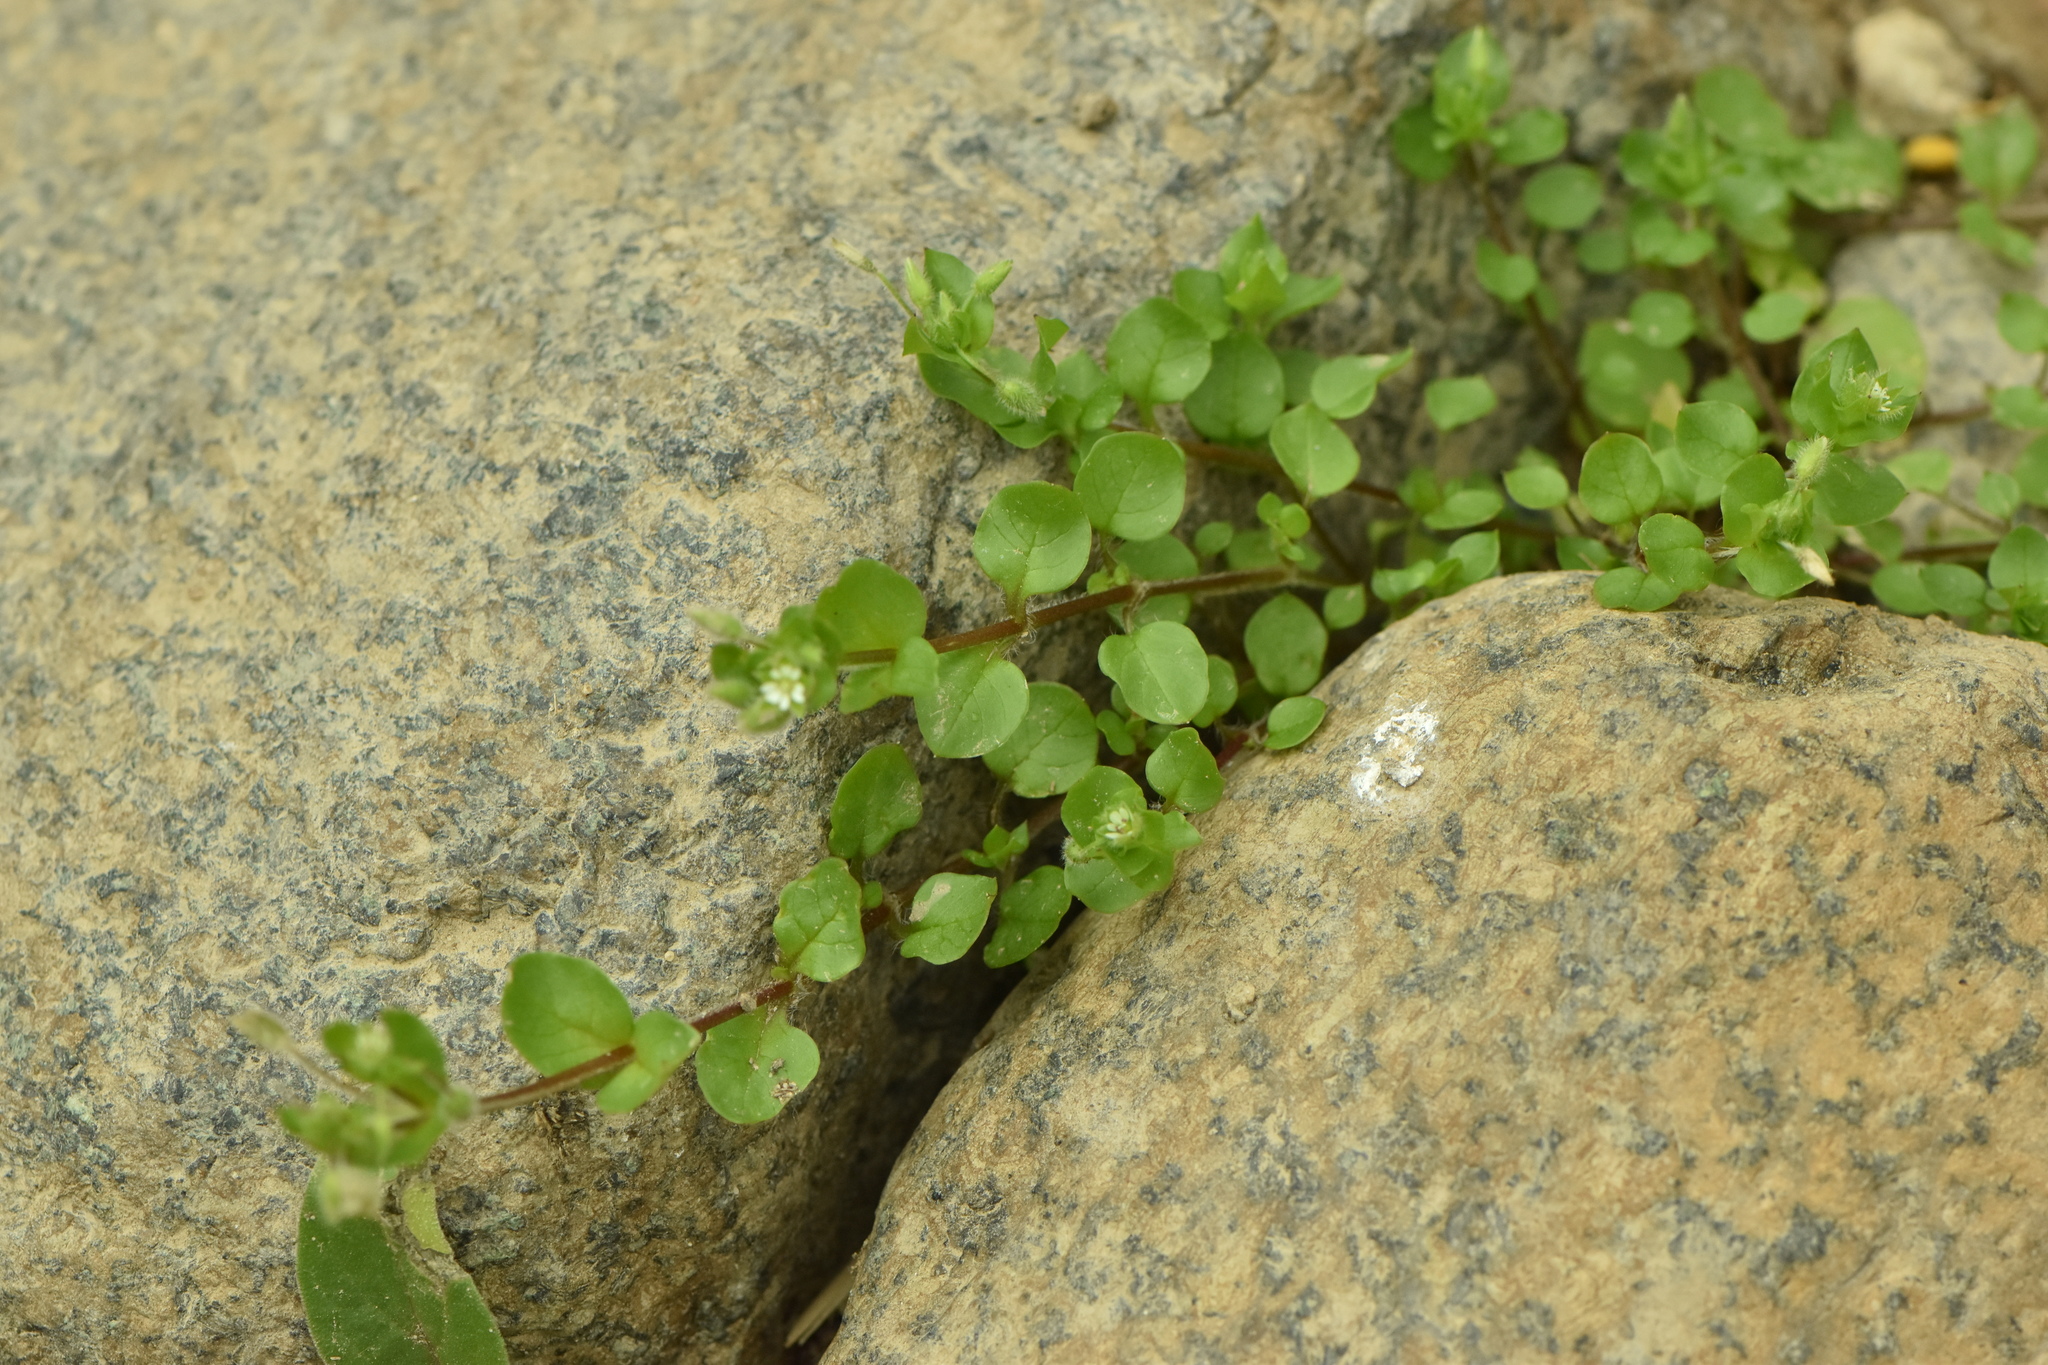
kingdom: Plantae
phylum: Tracheophyta
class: Magnoliopsida
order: Caryophyllales
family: Caryophyllaceae
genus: Stellaria
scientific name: Stellaria media
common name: Common chickweed
